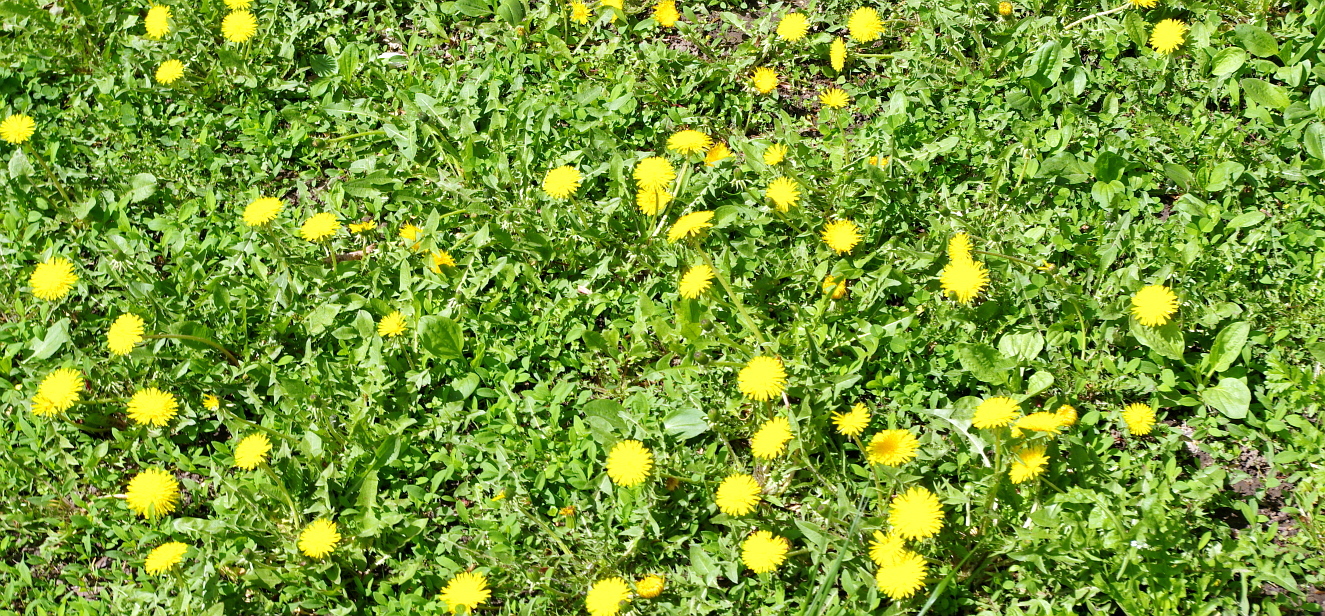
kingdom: Plantae
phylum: Tracheophyta
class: Magnoliopsida
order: Asterales
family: Asteraceae
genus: Taraxacum
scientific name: Taraxacum officinale
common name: Common dandelion
